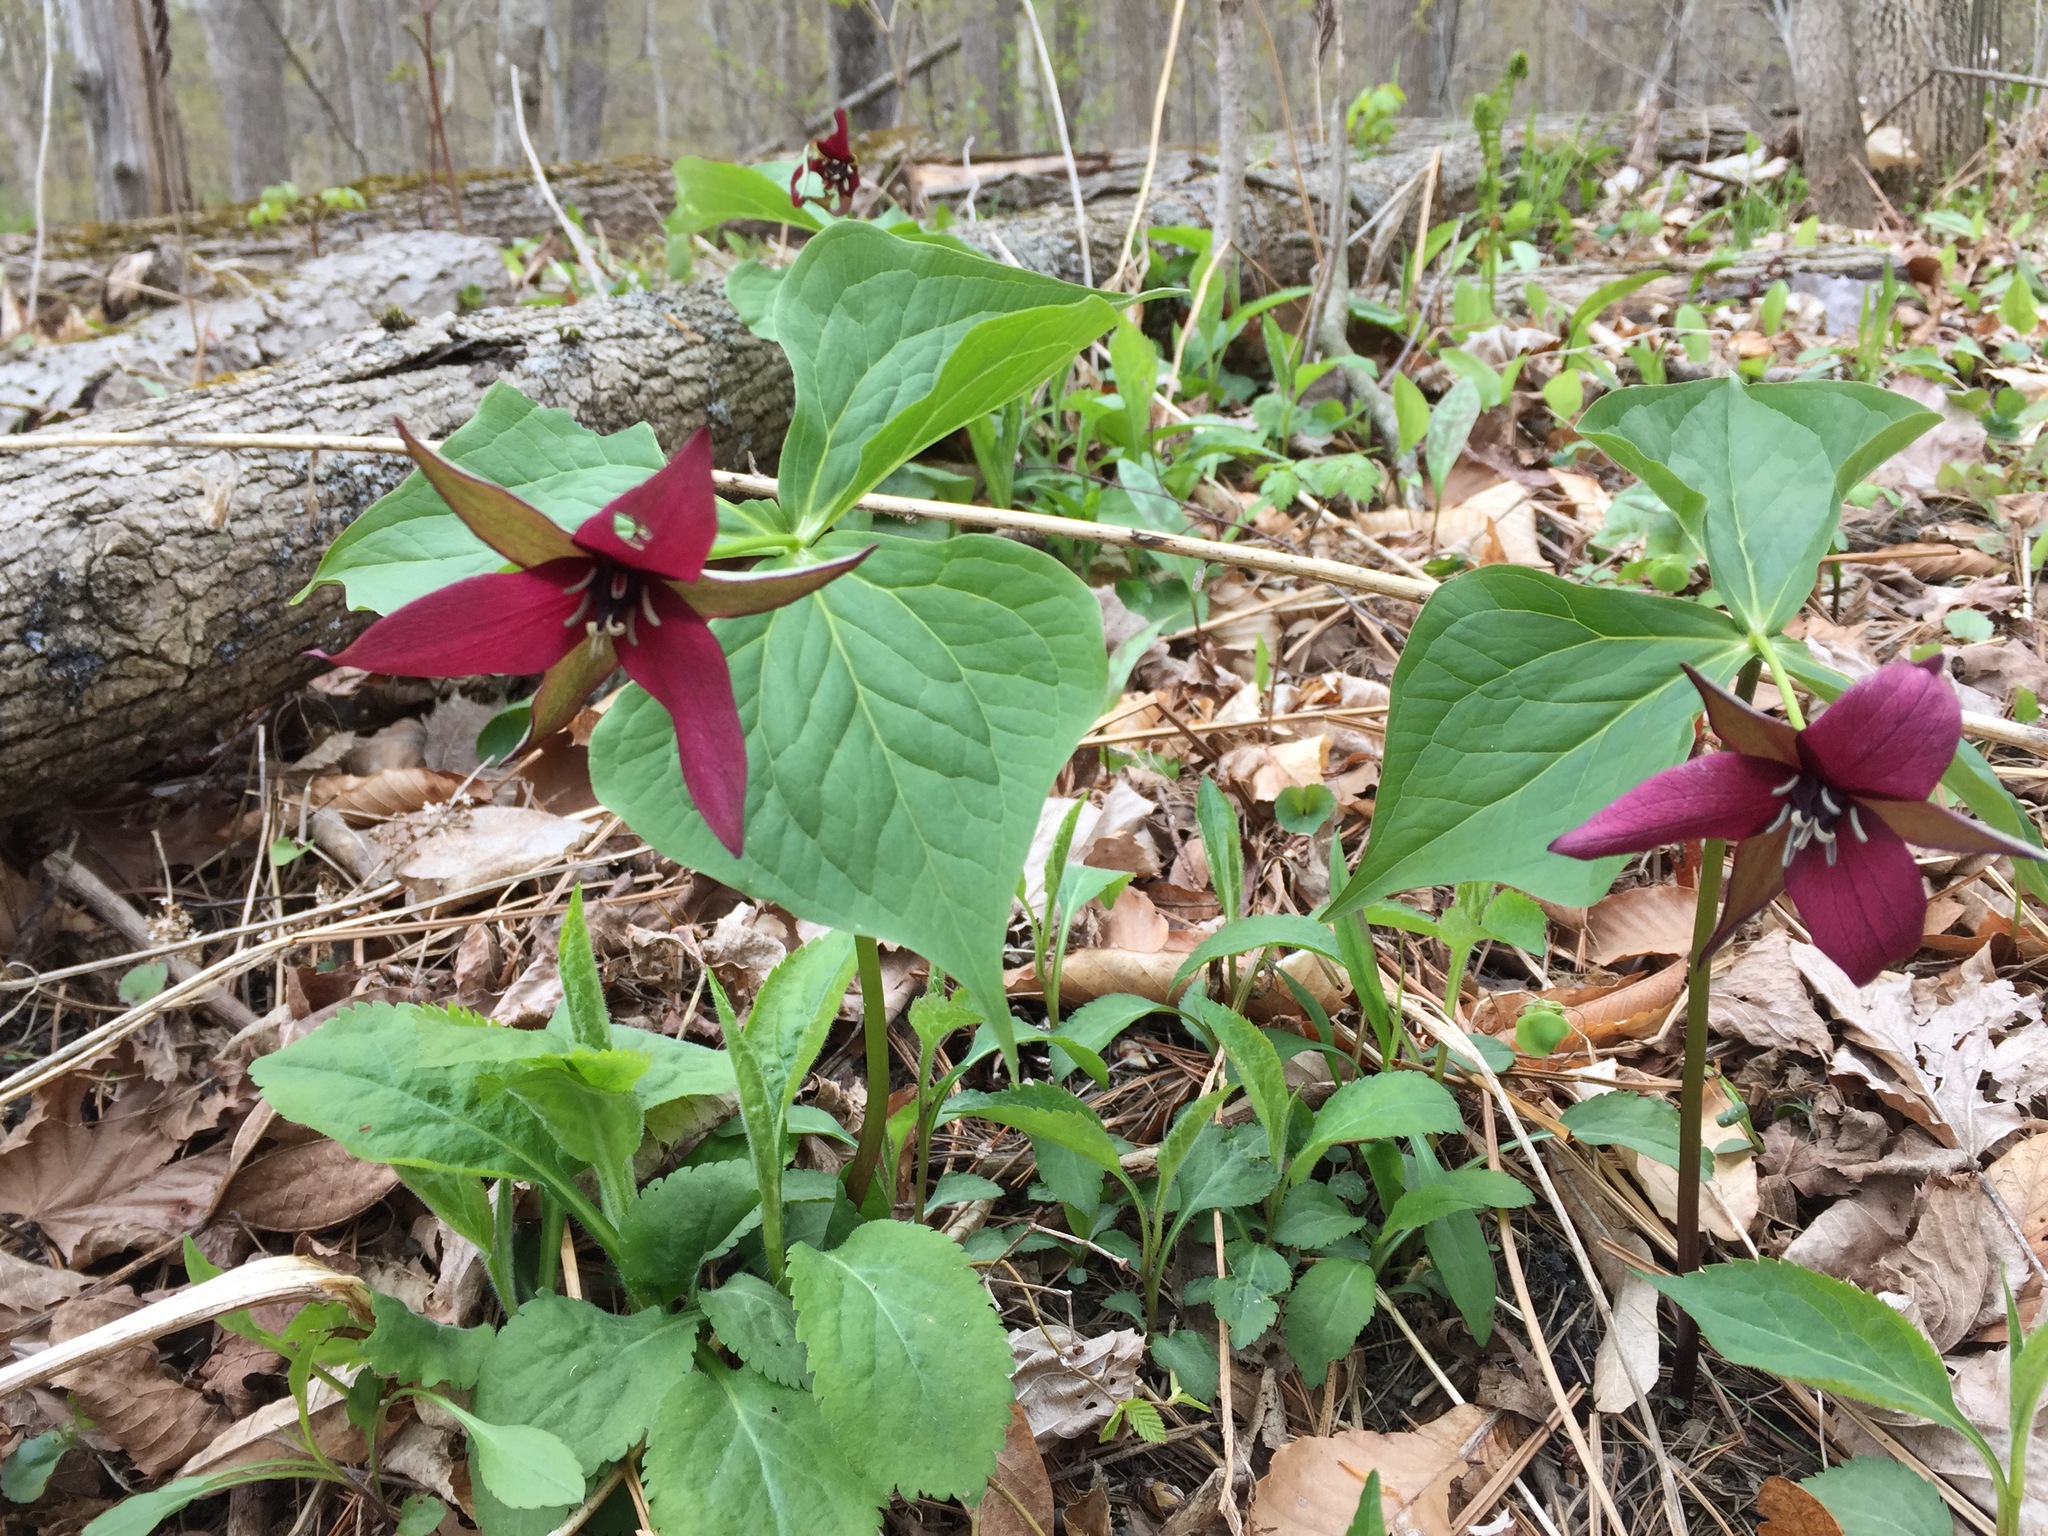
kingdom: Plantae
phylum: Tracheophyta
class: Liliopsida
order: Liliales
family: Melanthiaceae
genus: Trillium
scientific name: Trillium erectum
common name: Purple trillium
